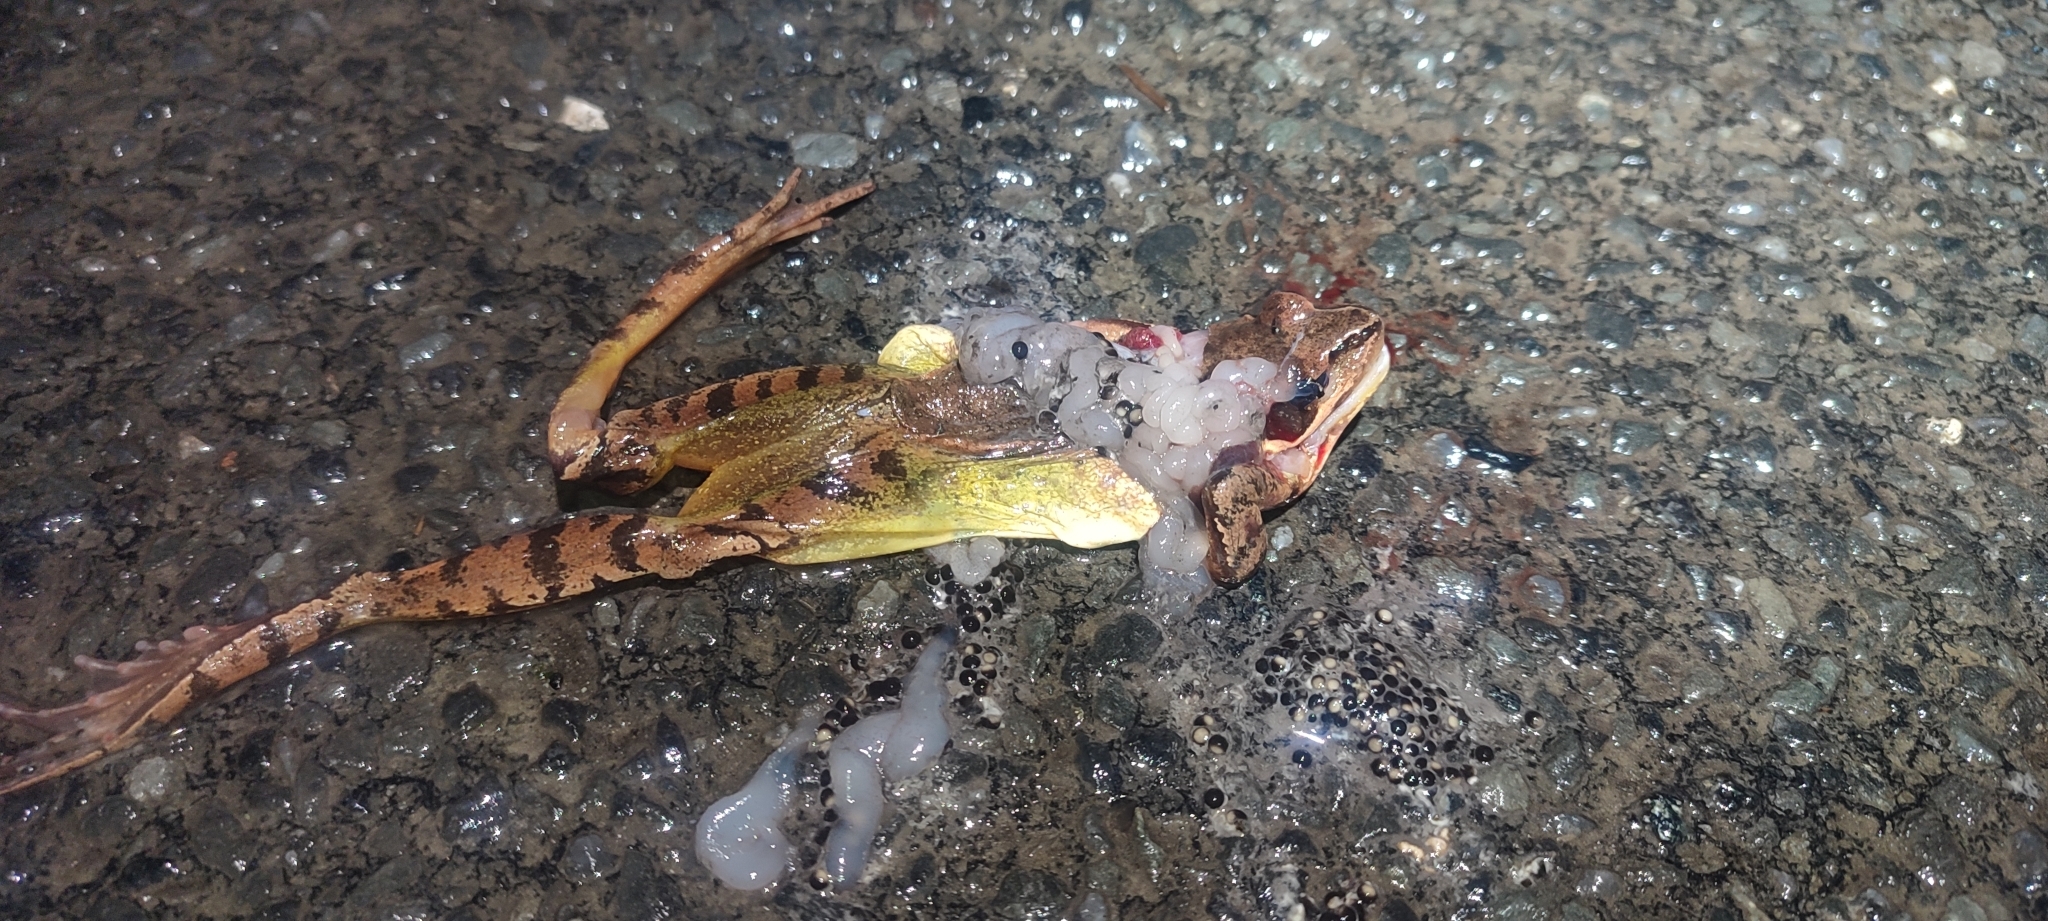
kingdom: Animalia
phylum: Chordata
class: Amphibia
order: Anura
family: Ranidae
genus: Rana
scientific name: Rana dalmatina
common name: Agile frog
